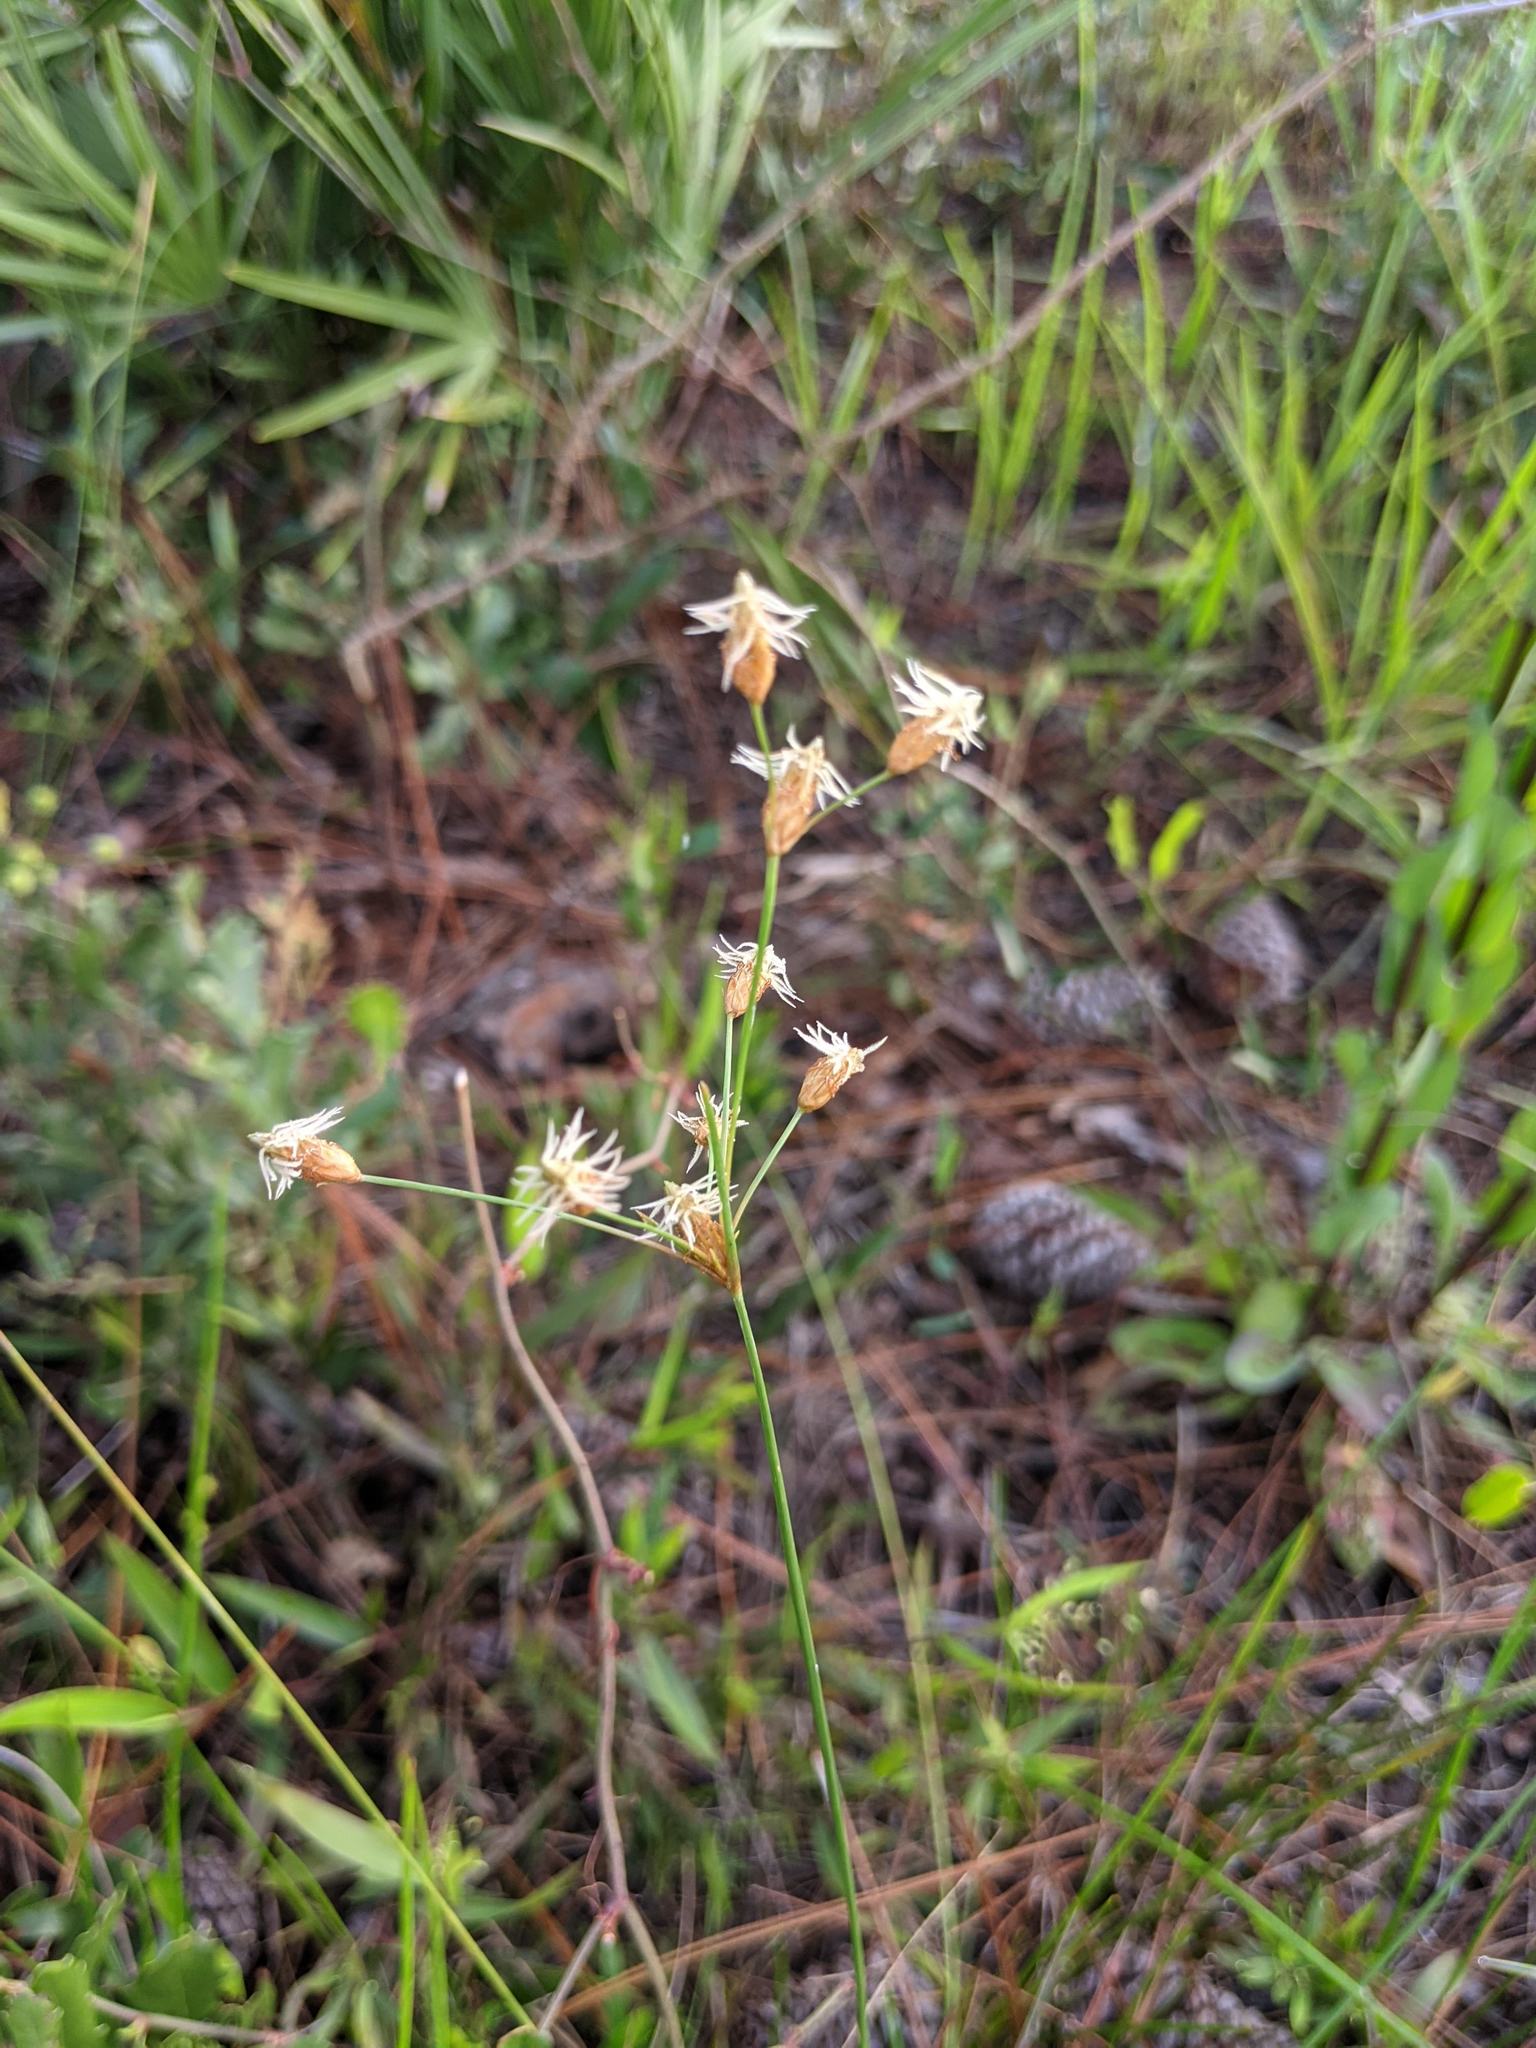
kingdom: Plantae
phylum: Tracheophyta
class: Liliopsida
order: Poales
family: Cyperaceae
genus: Fimbristylis
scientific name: Fimbristylis puberula
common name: Hairy fimbristylis
